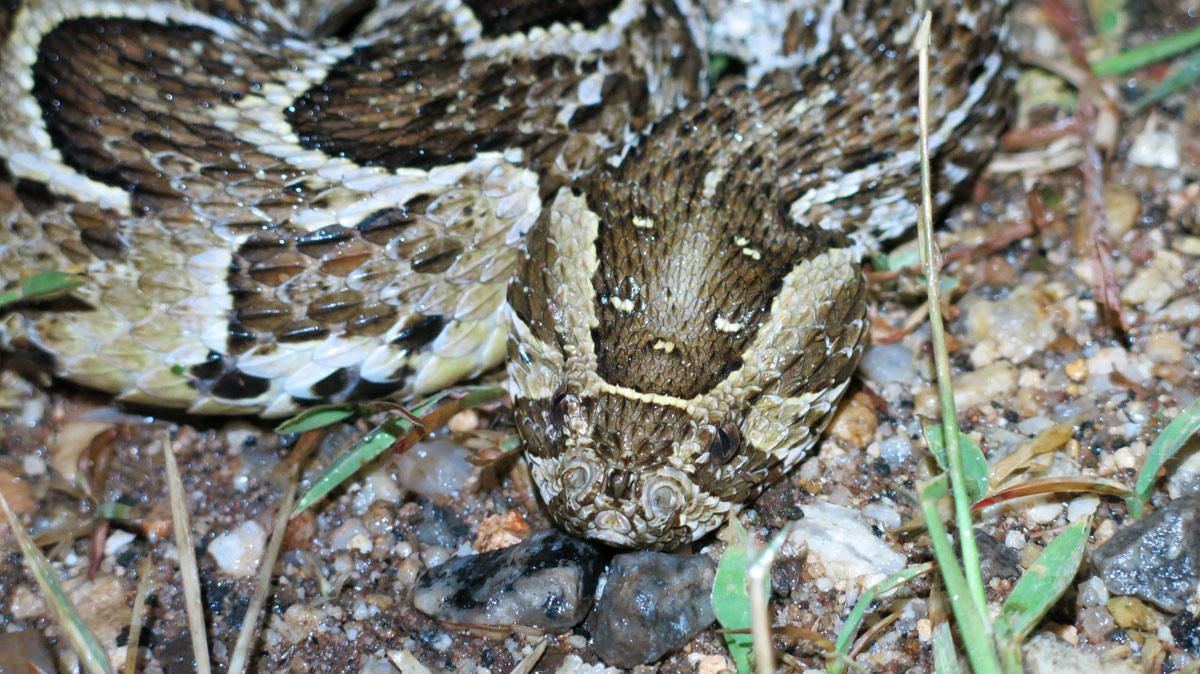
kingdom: Animalia
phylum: Chordata
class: Squamata
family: Viperidae
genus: Bitis
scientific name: Bitis arietans
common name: Puff adder
